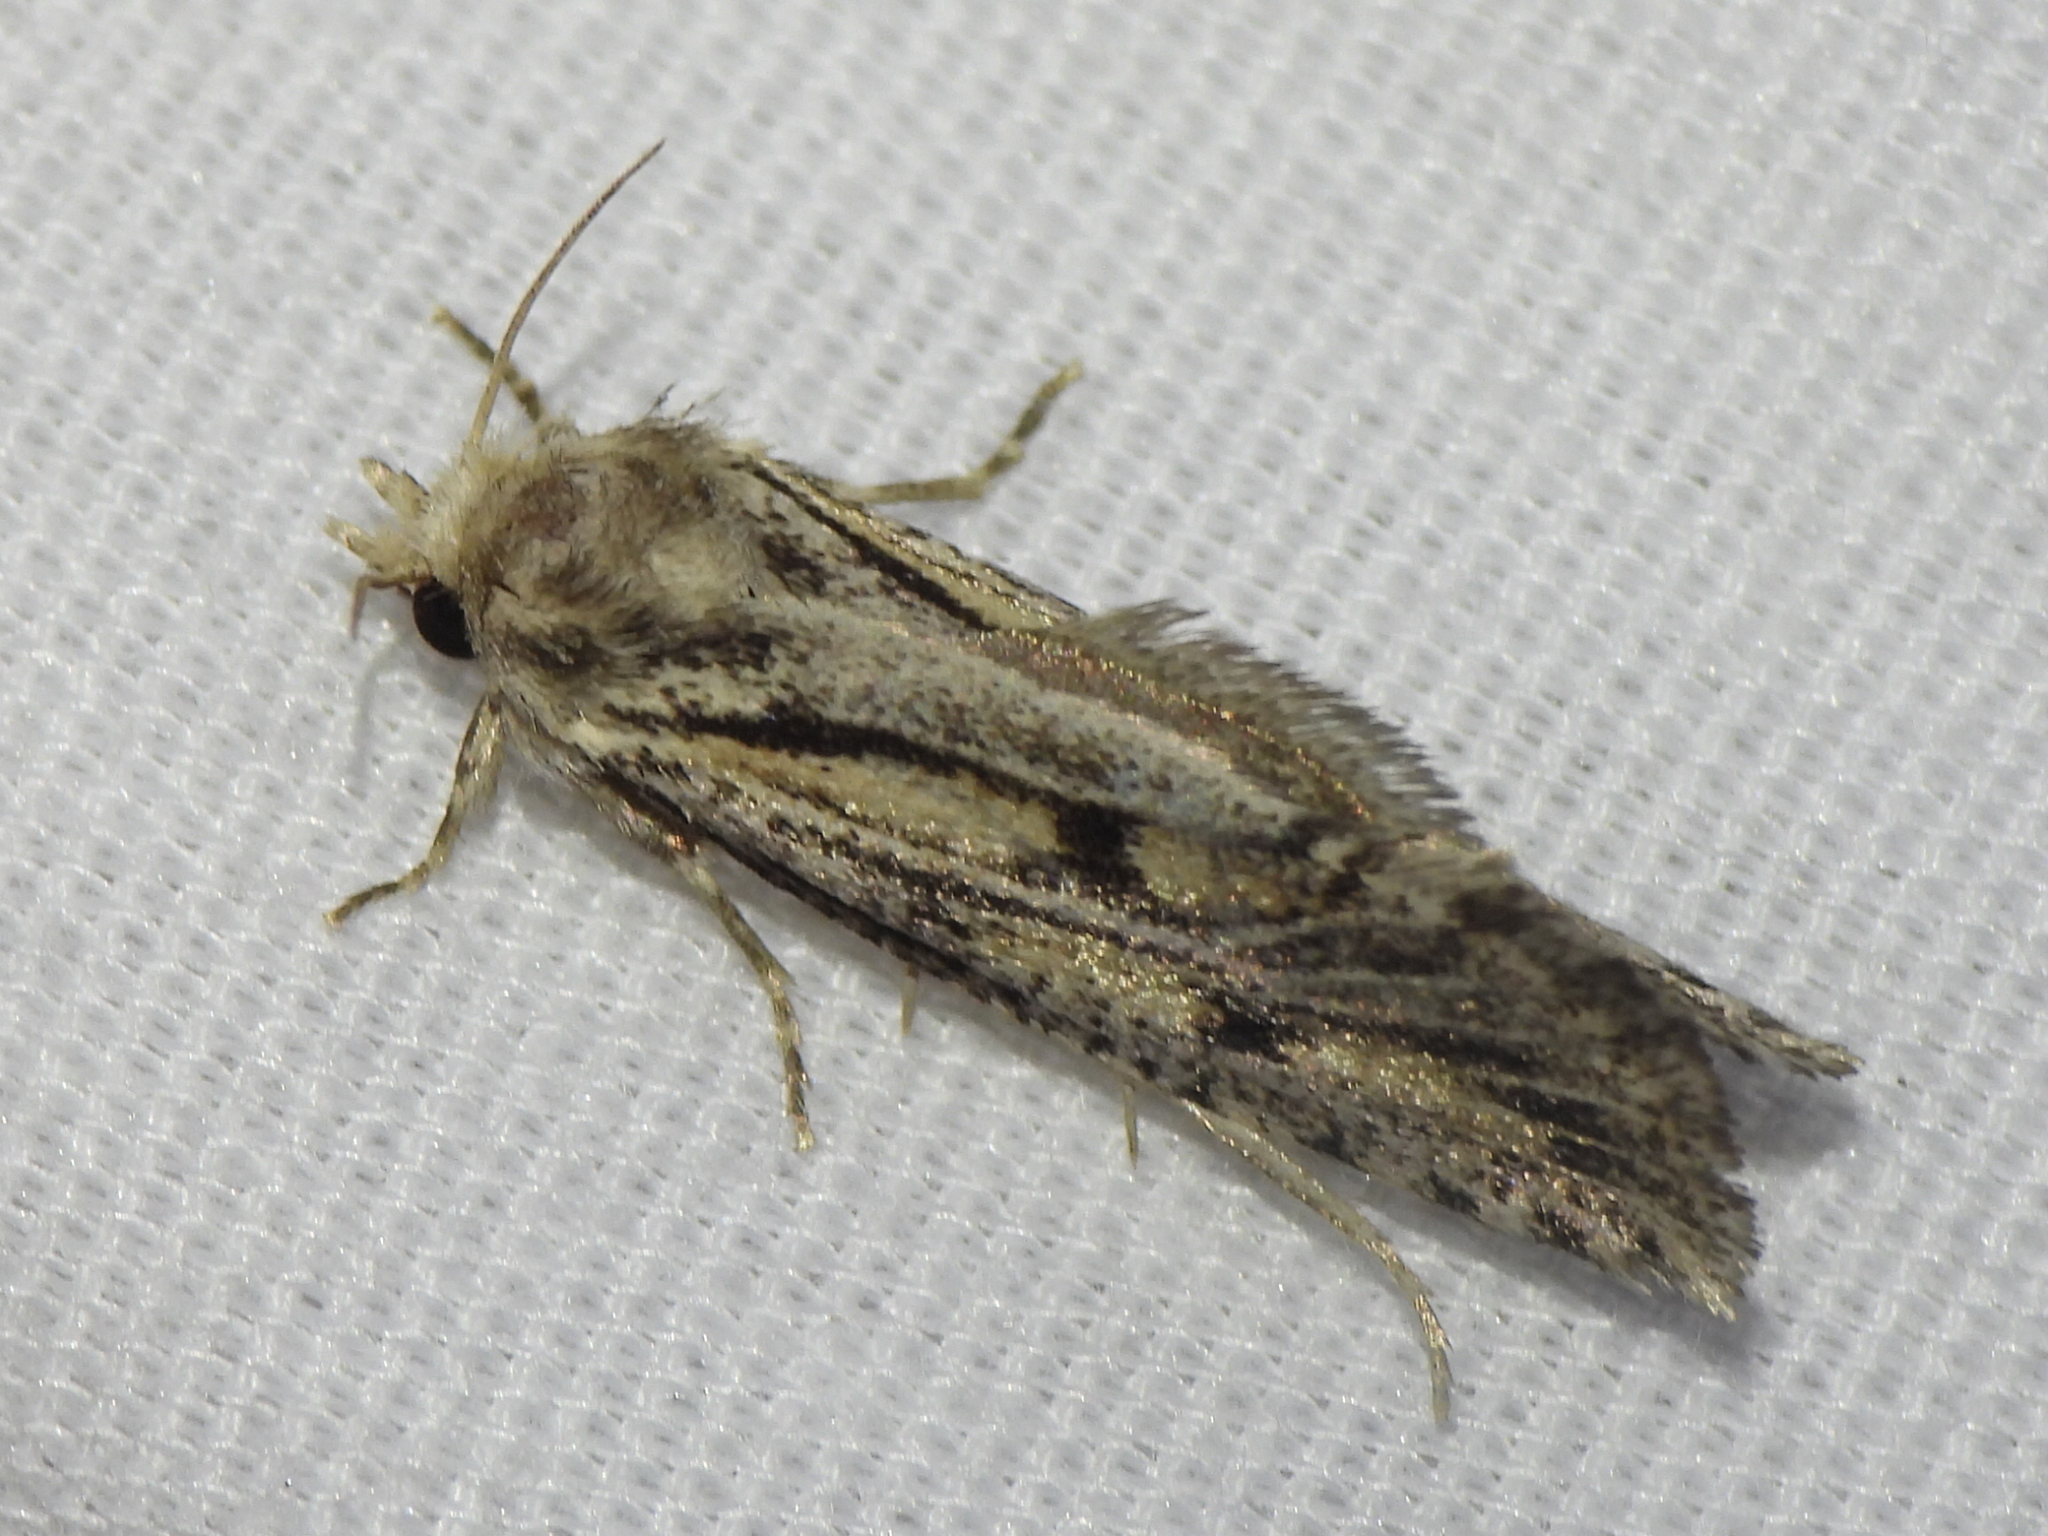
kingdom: Animalia
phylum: Arthropoda
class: Insecta
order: Lepidoptera
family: Tineidae
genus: Acrolophus
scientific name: Acrolophus popeanella
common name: Clemens' grass tubeworm moth
